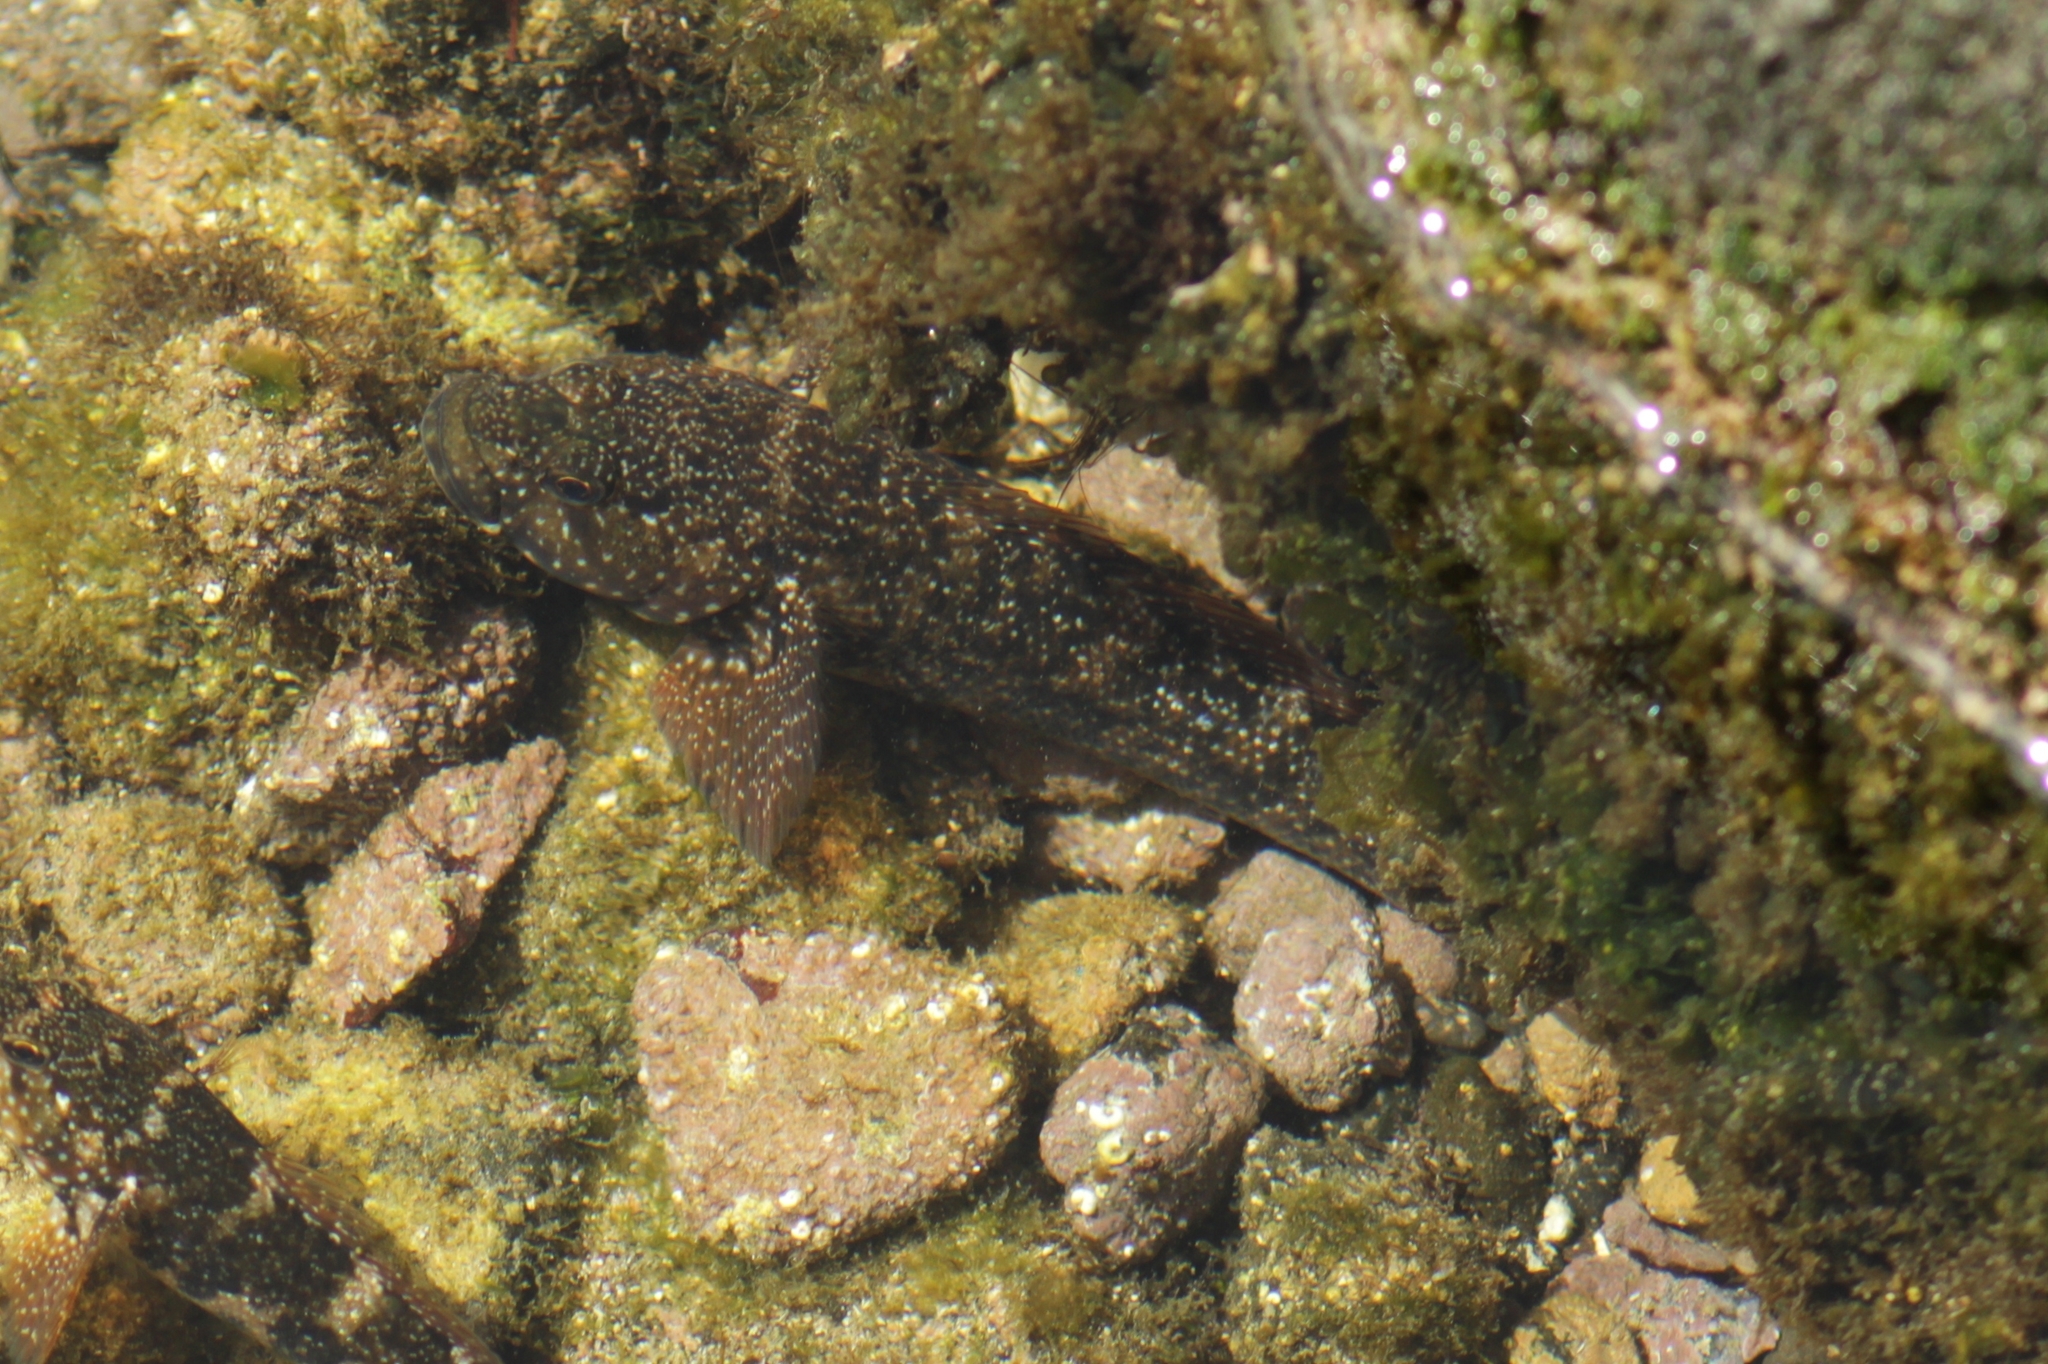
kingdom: Animalia
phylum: Chordata
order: Perciformes
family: Gobiidae
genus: Mauligobius
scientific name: Mauligobius maderensis
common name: Rock goby
